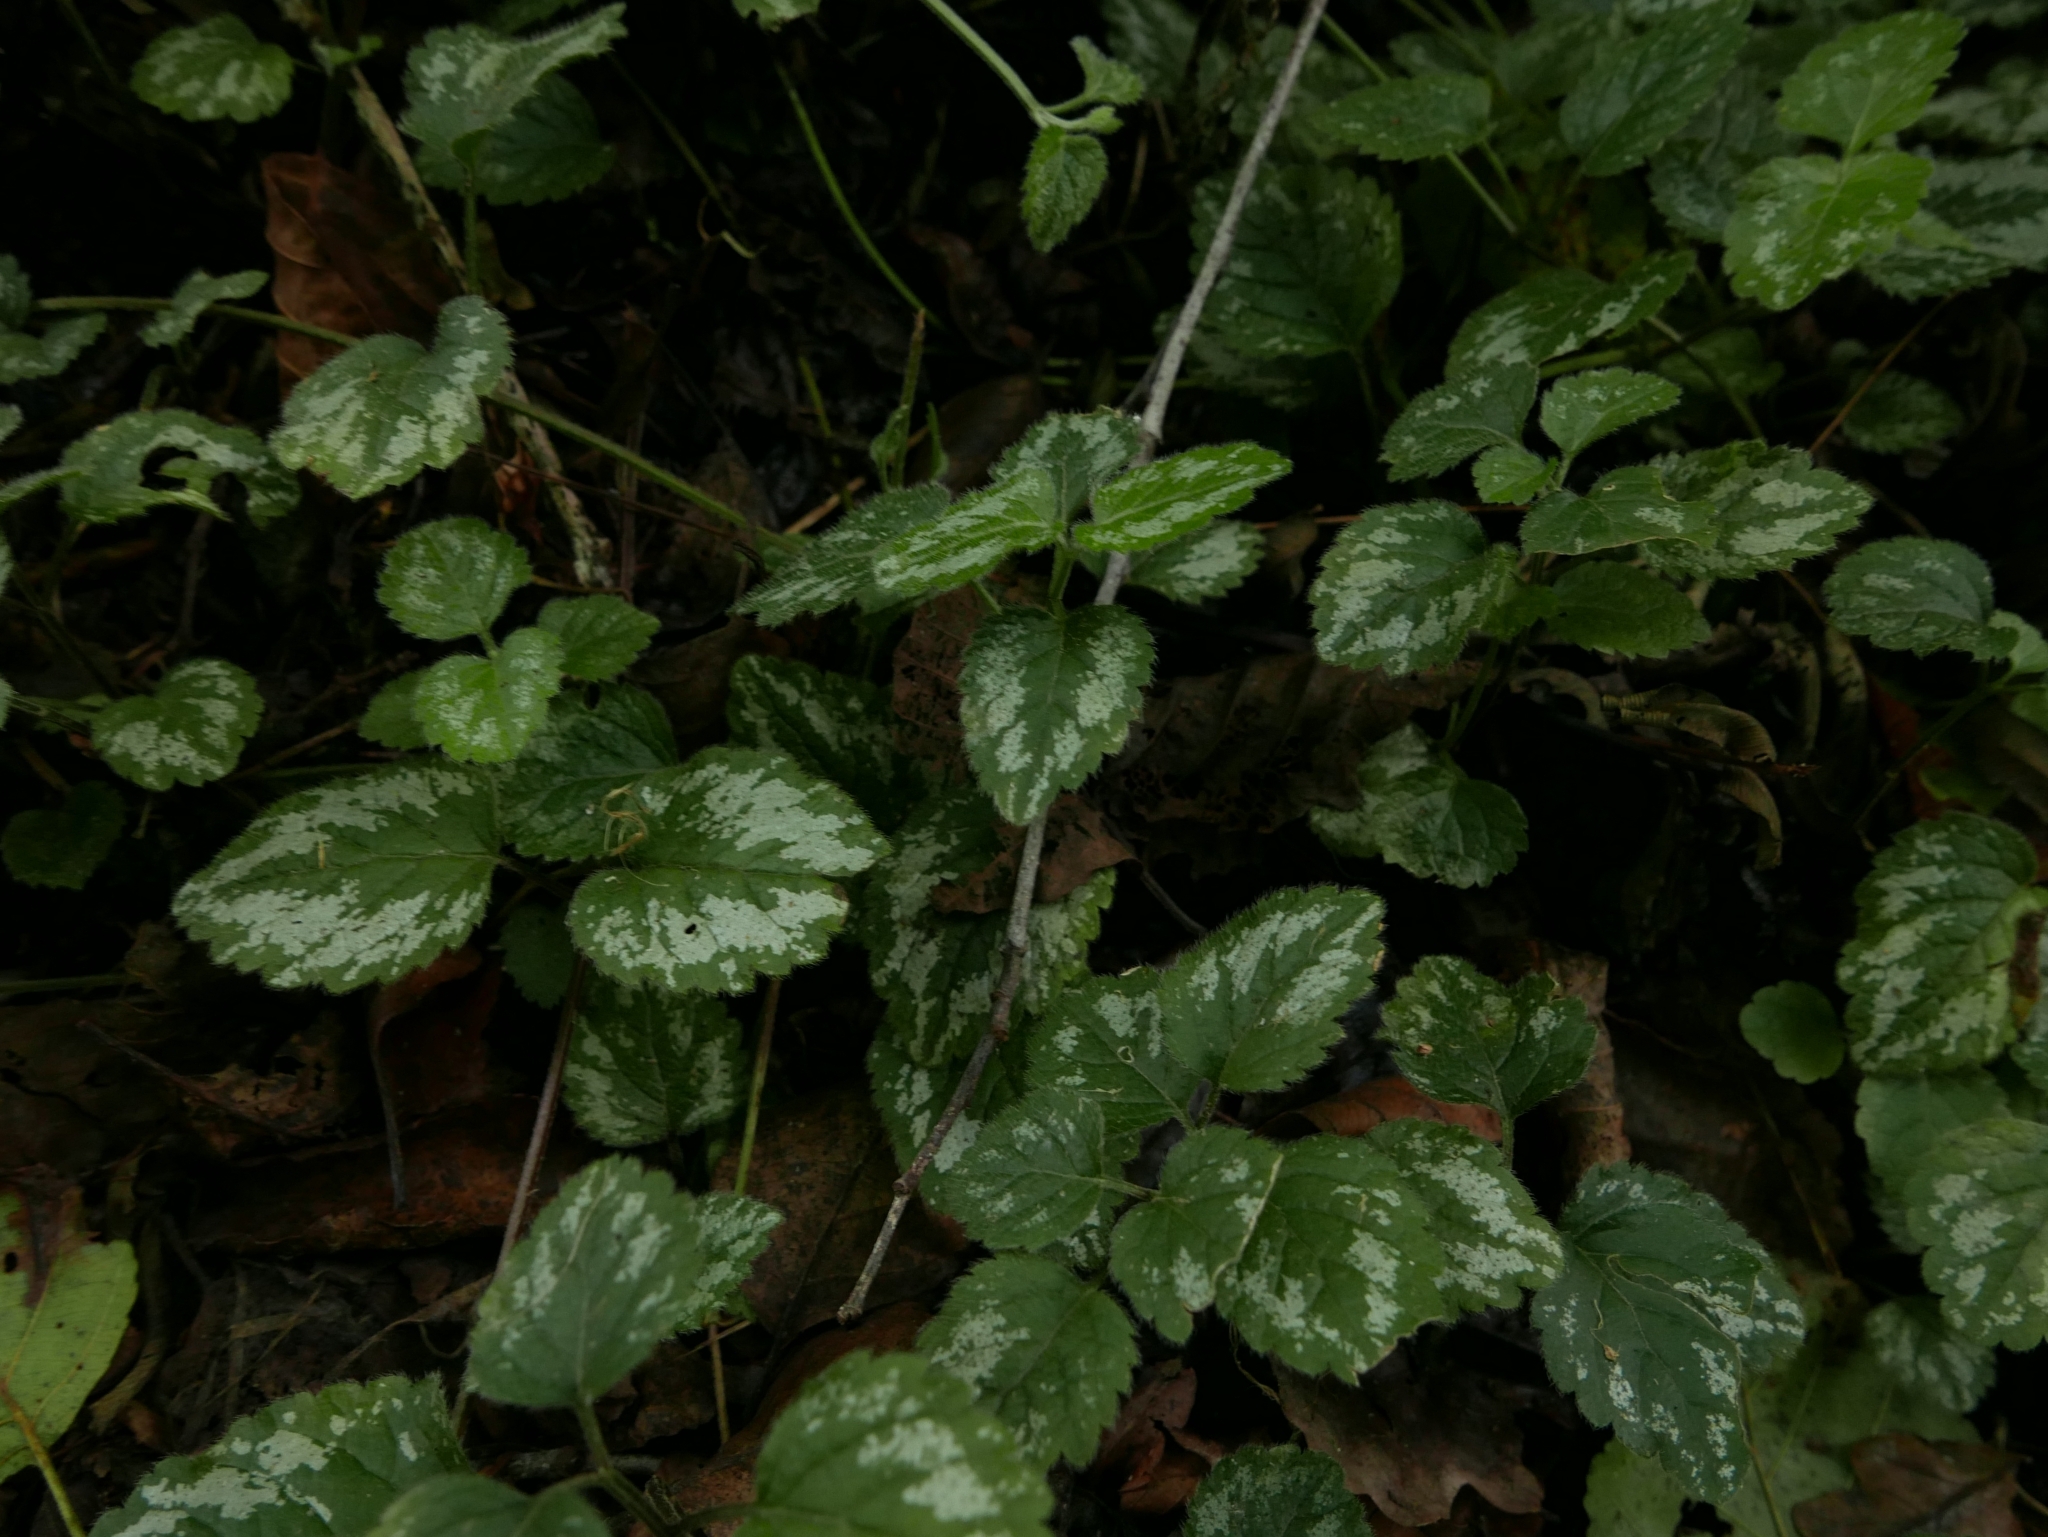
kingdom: Plantae
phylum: Tracheophyta
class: Magnoliopsida
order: Lamiales
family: Lamiaceae
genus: Lamium
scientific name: Lamium galeobdolon
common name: Yellow archangel
